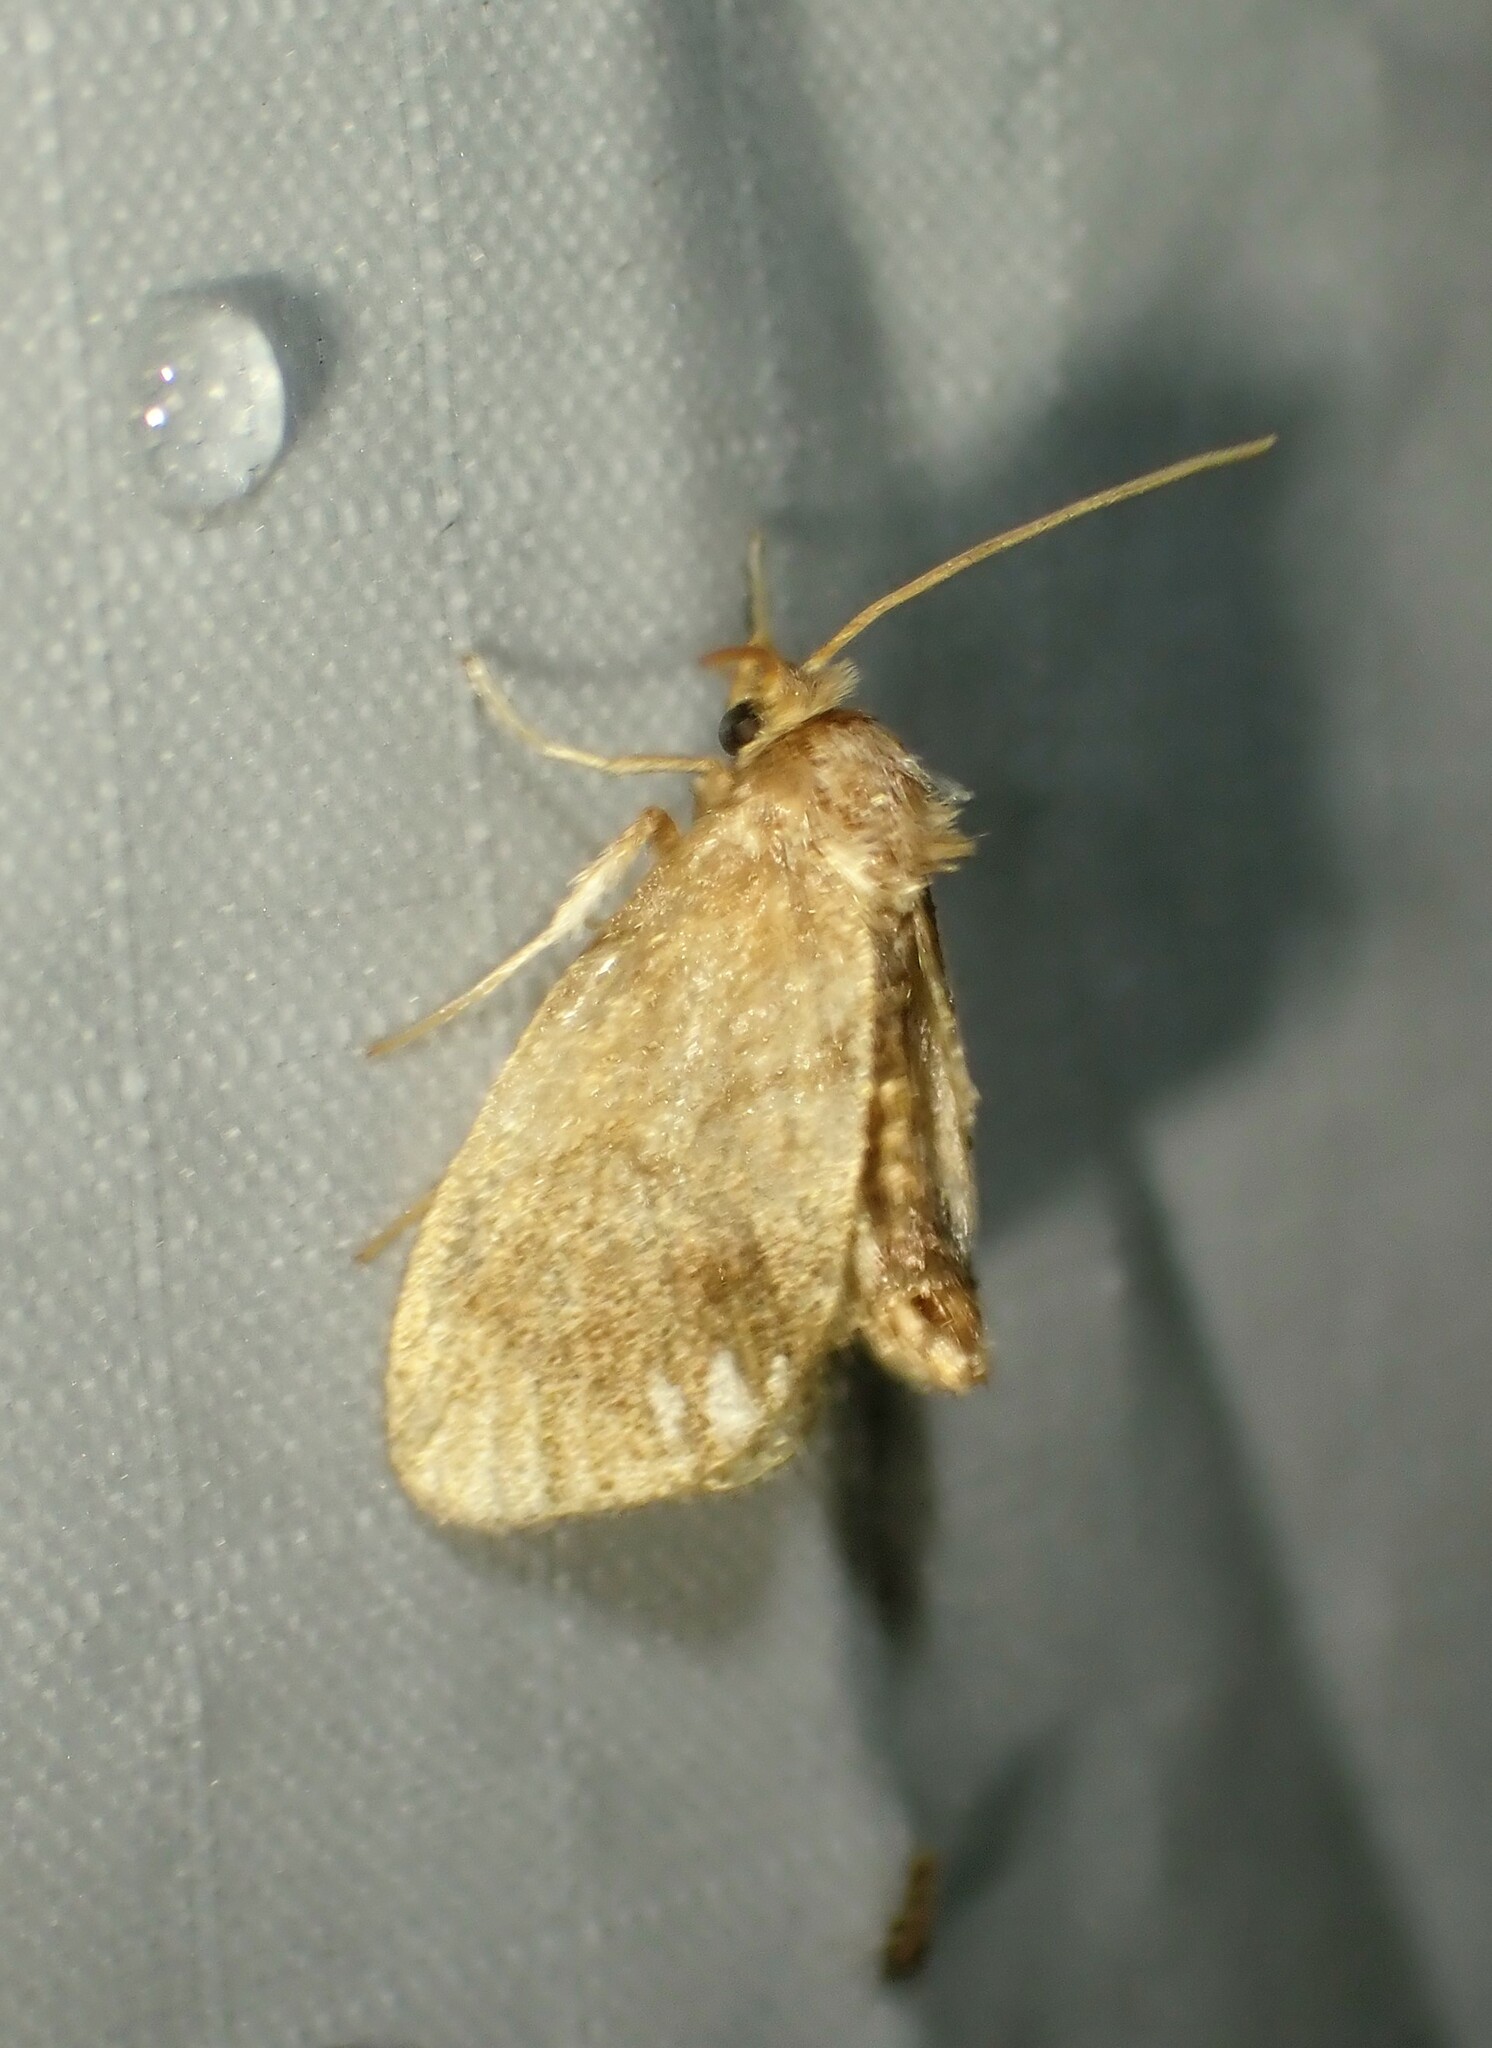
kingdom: Animalia
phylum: Arthropoda
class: Insecta
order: Lepidoptera
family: Limacodidae
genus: Packardia
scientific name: Packardia geminata
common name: Jeweled tailed slug moth
